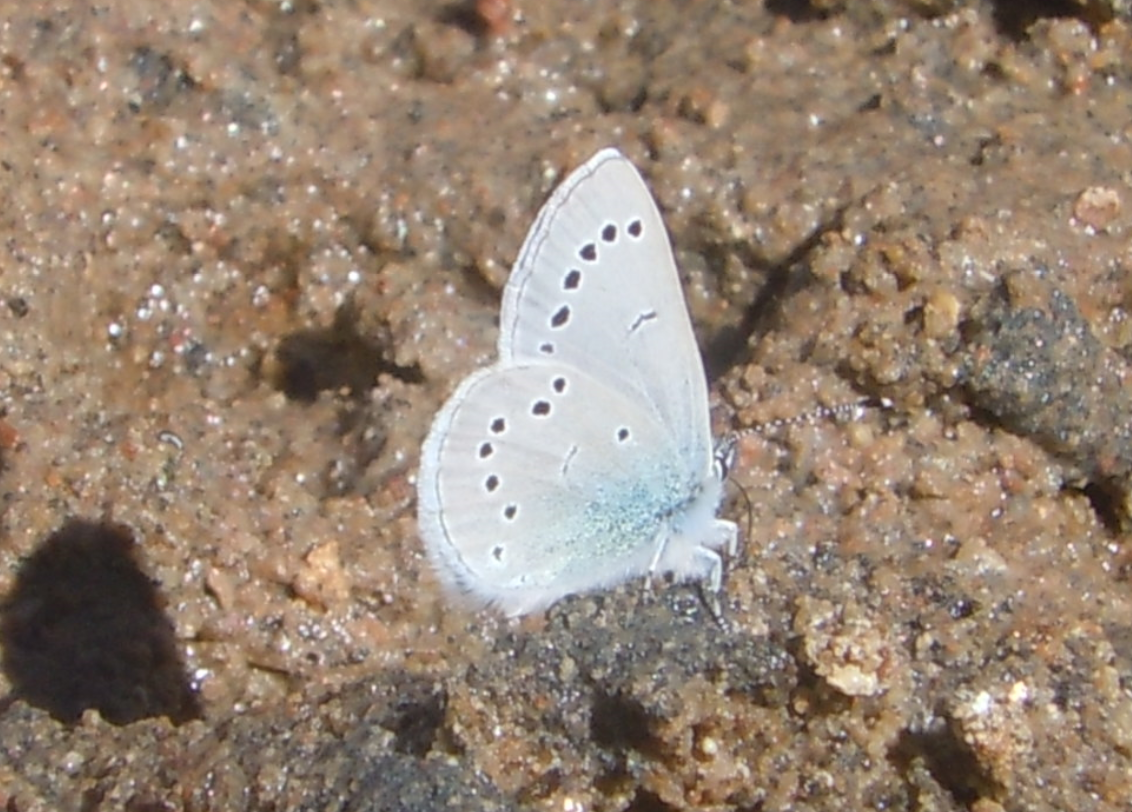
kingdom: Animalia
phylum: Arthropoda
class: Insecta
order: Lepidoptera
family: Lycaenidae
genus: Glaucopsyche
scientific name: Glaucopsyche lygdamus
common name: Silvery blue
